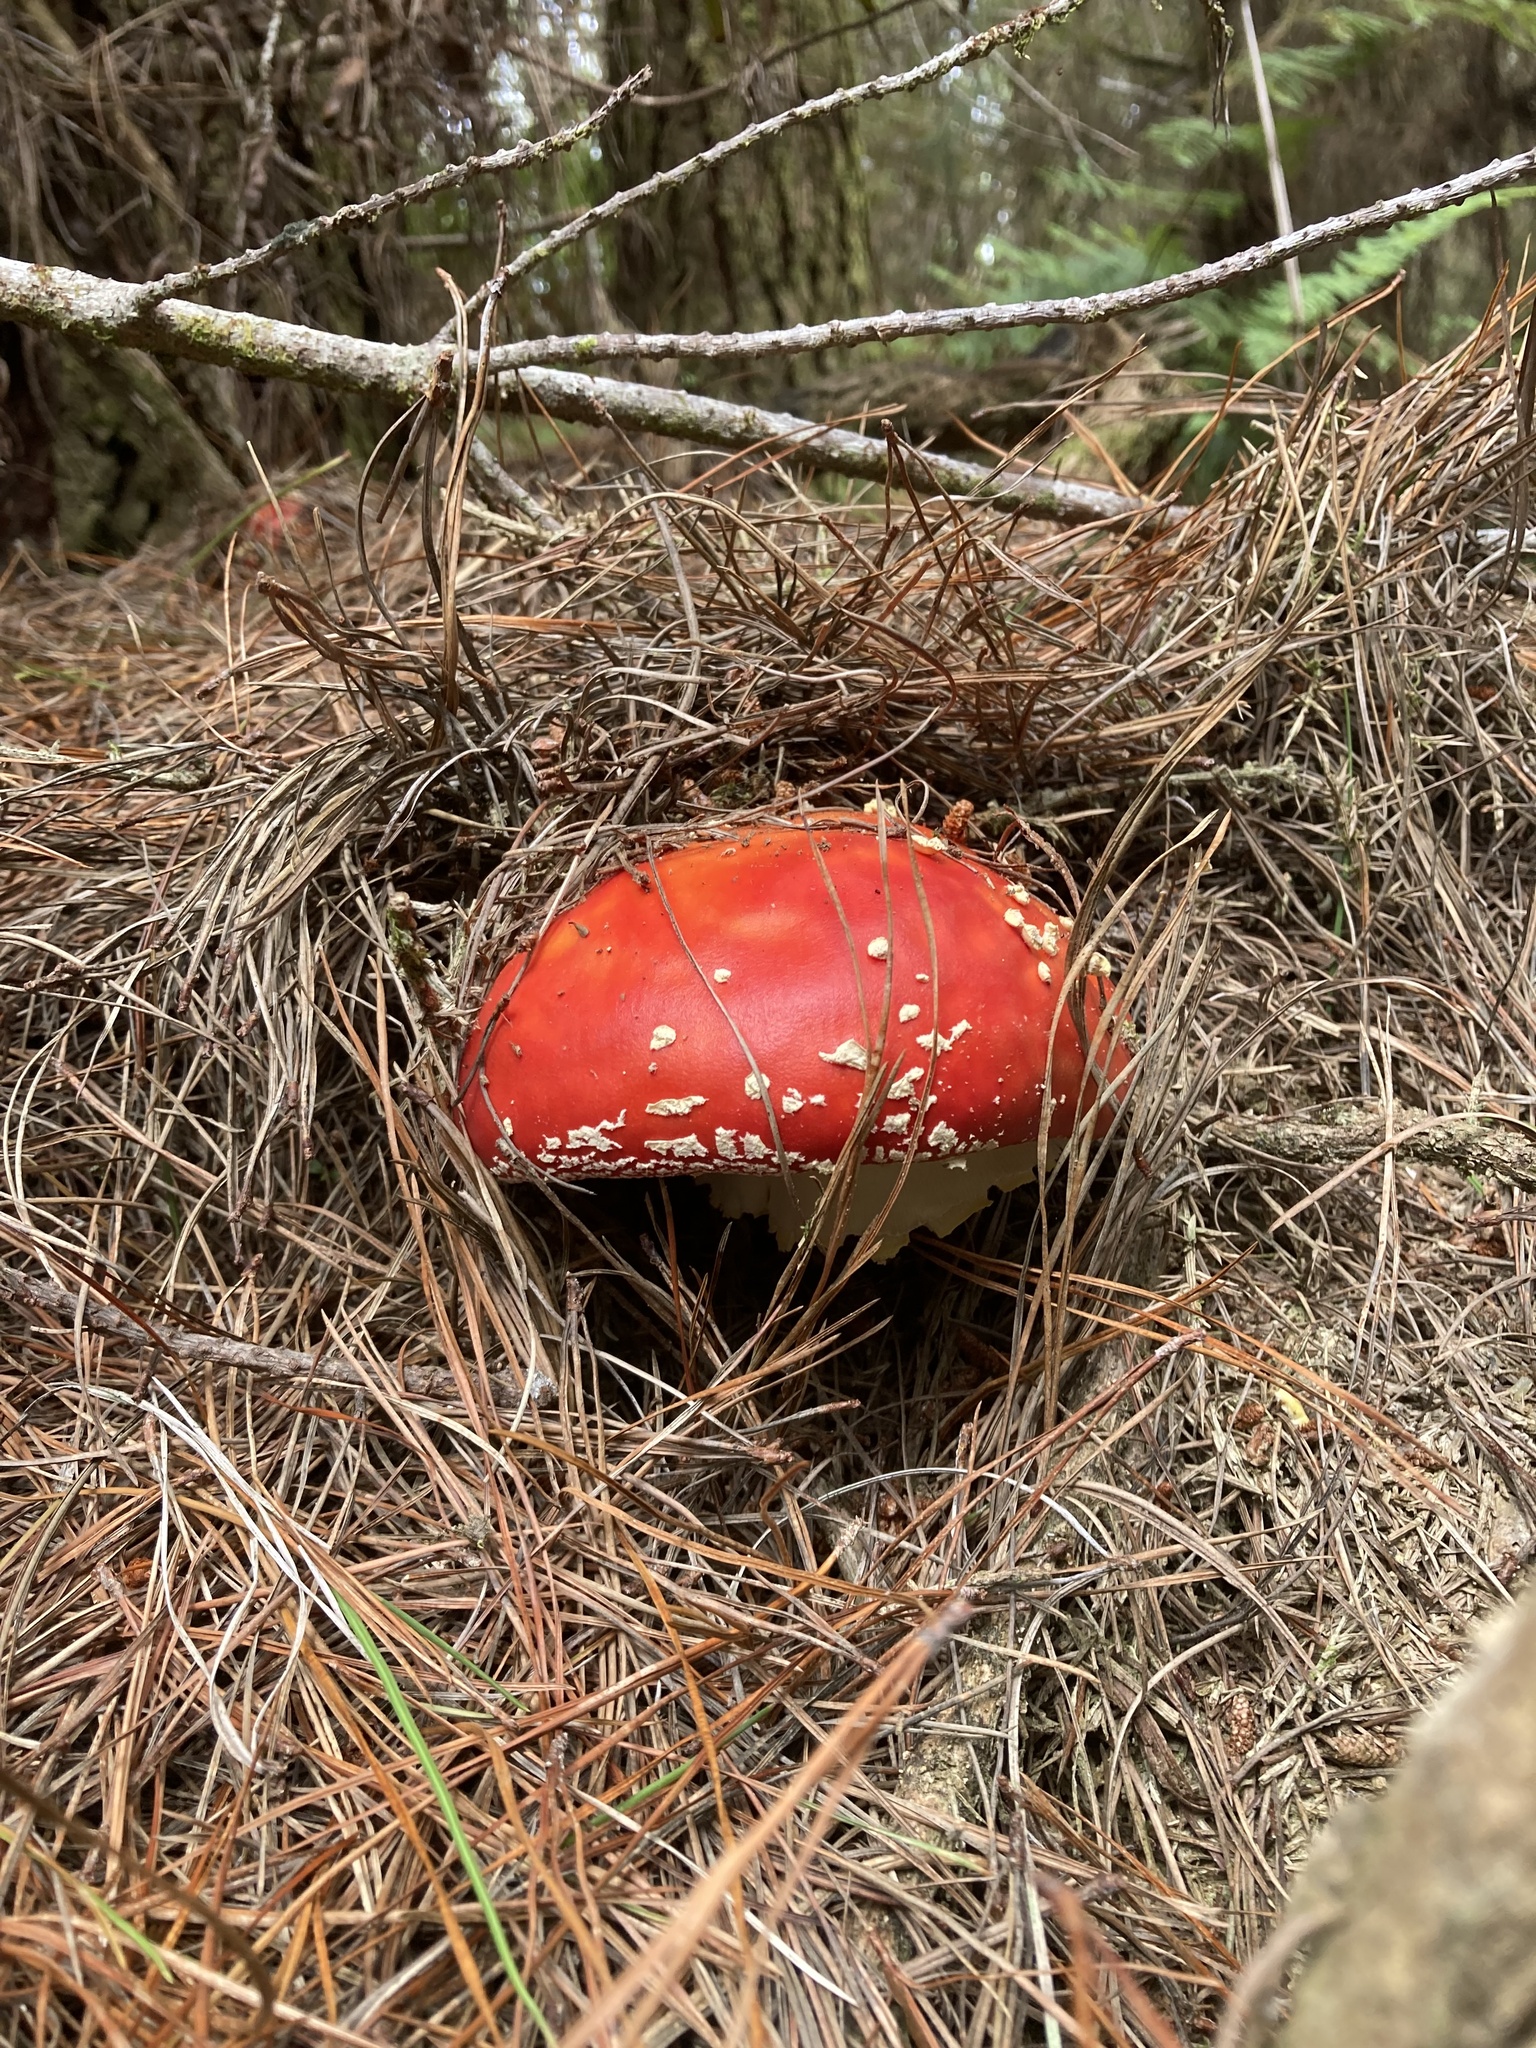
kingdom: Fungi
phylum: Basidiomycota
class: Agaricomycetes
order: Agaricales
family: Amanitaceae
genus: Amanita
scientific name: Amanita muscaria
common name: Fly agaric
